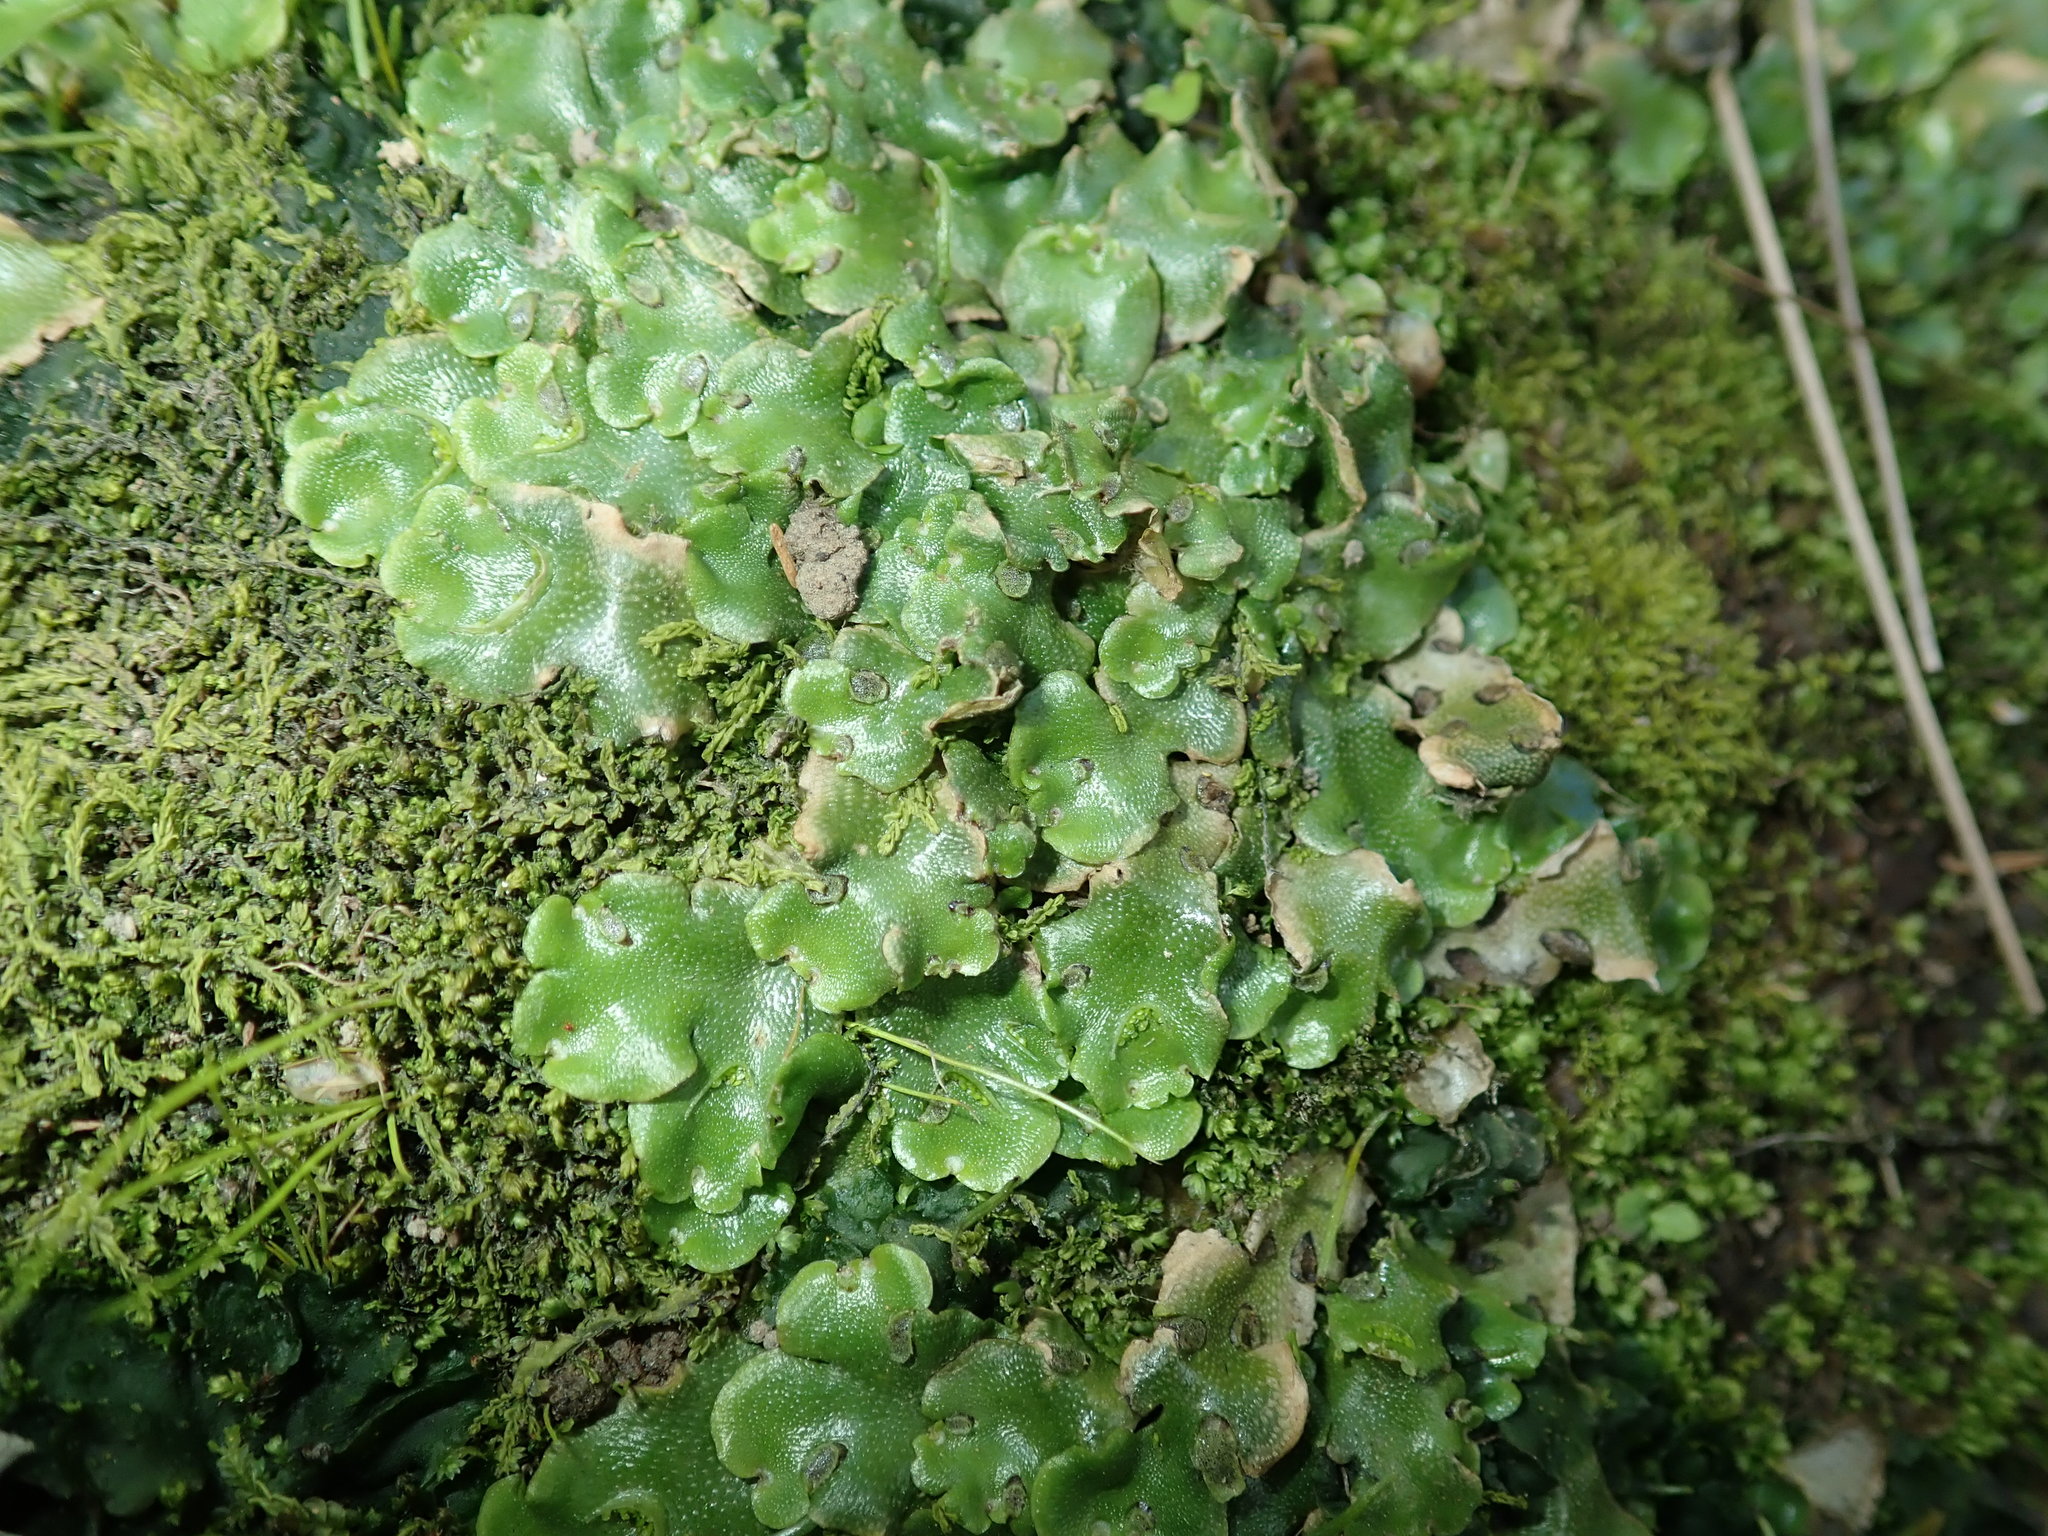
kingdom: Plantae
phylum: Marchantiophyta
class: Marchantiopsida
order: Lunulariales
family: Lunulariaceae
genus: Lunularia
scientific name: Lunularia cruciata
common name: Crescent-cup liverwort
